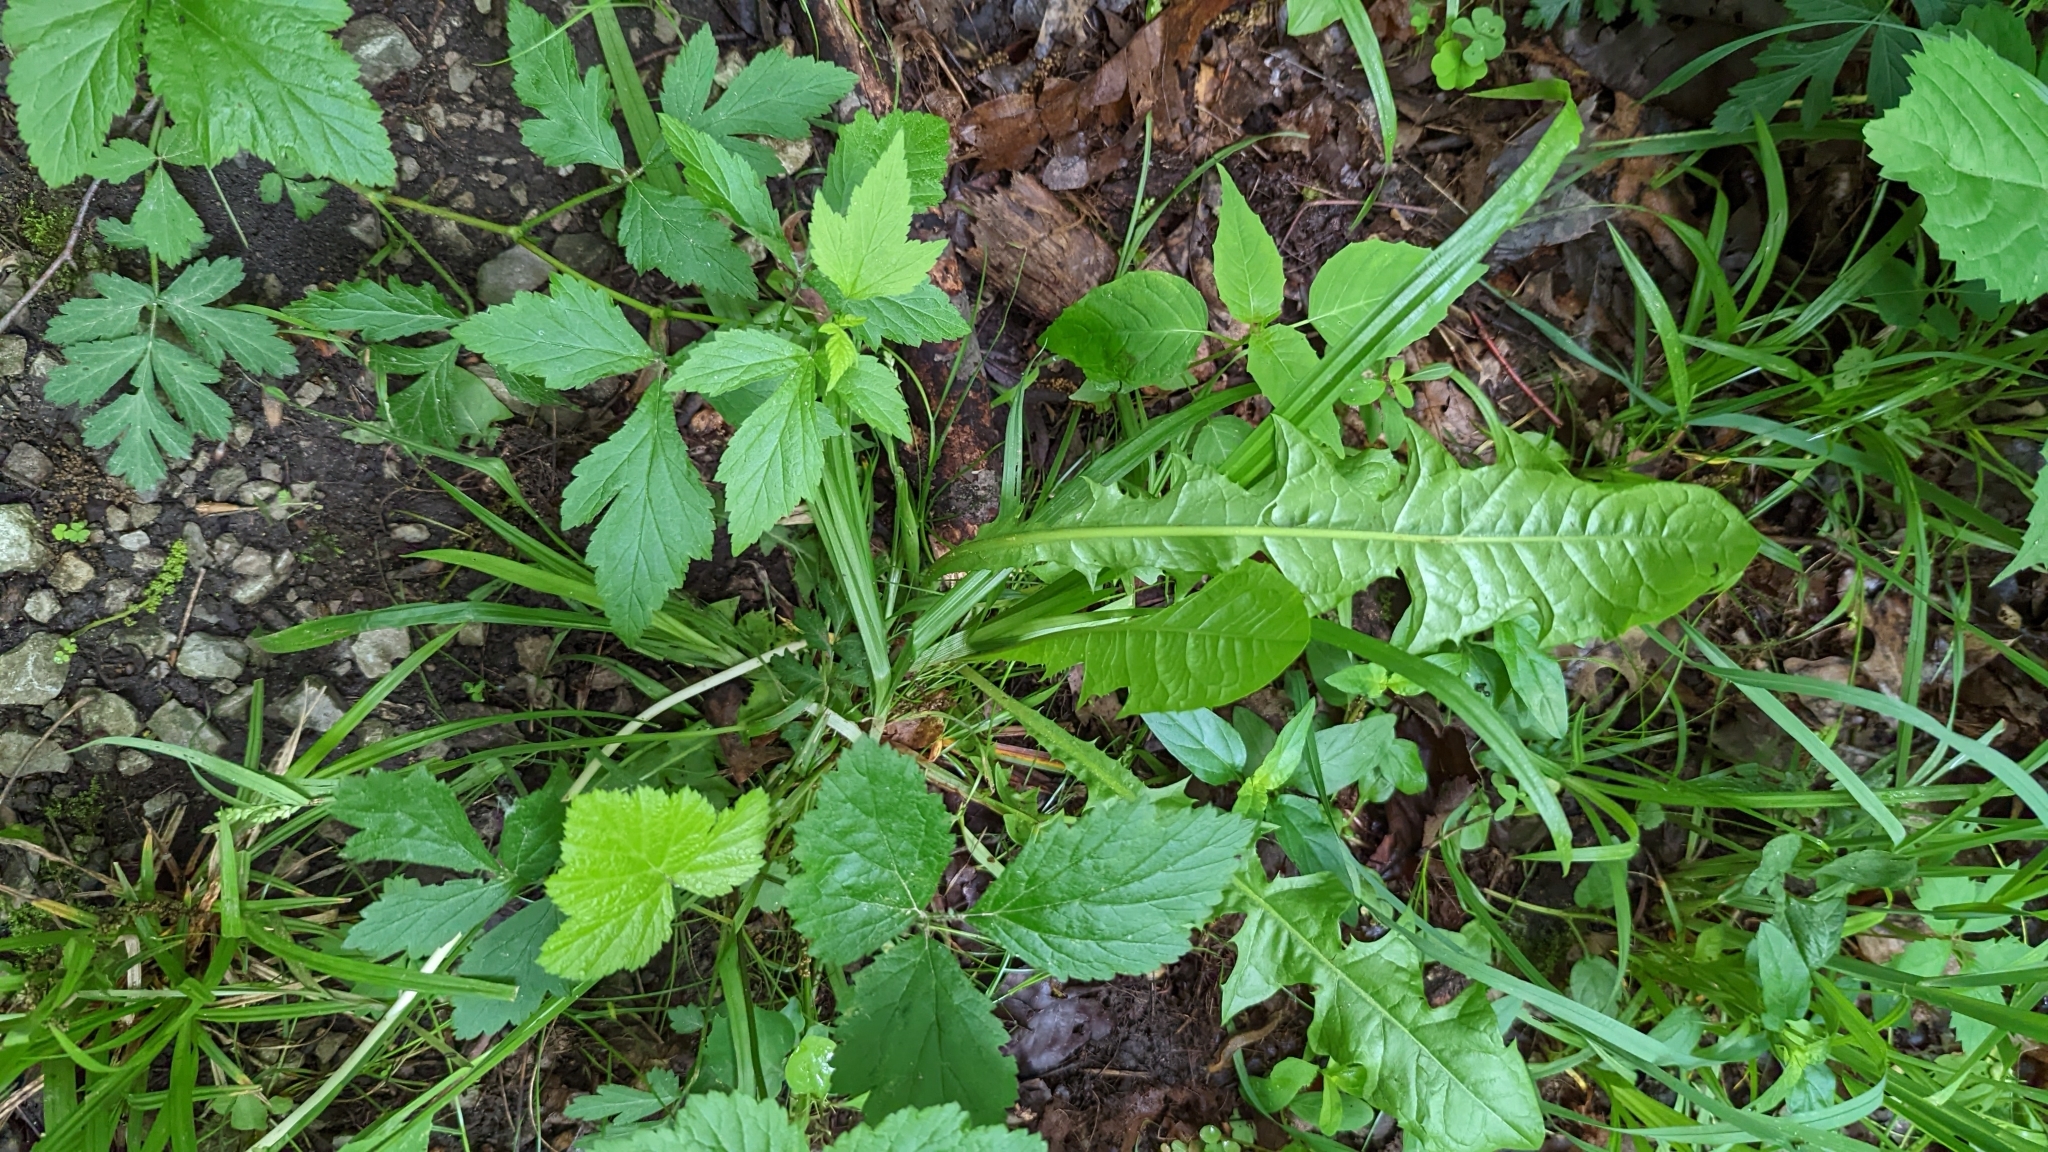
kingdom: Plantae
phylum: Tracheophyta
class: Magnoliopsida
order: Asterales
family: Asteraceae
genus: Taraxacum
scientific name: Taraxacum officinale
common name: Common dandelion
